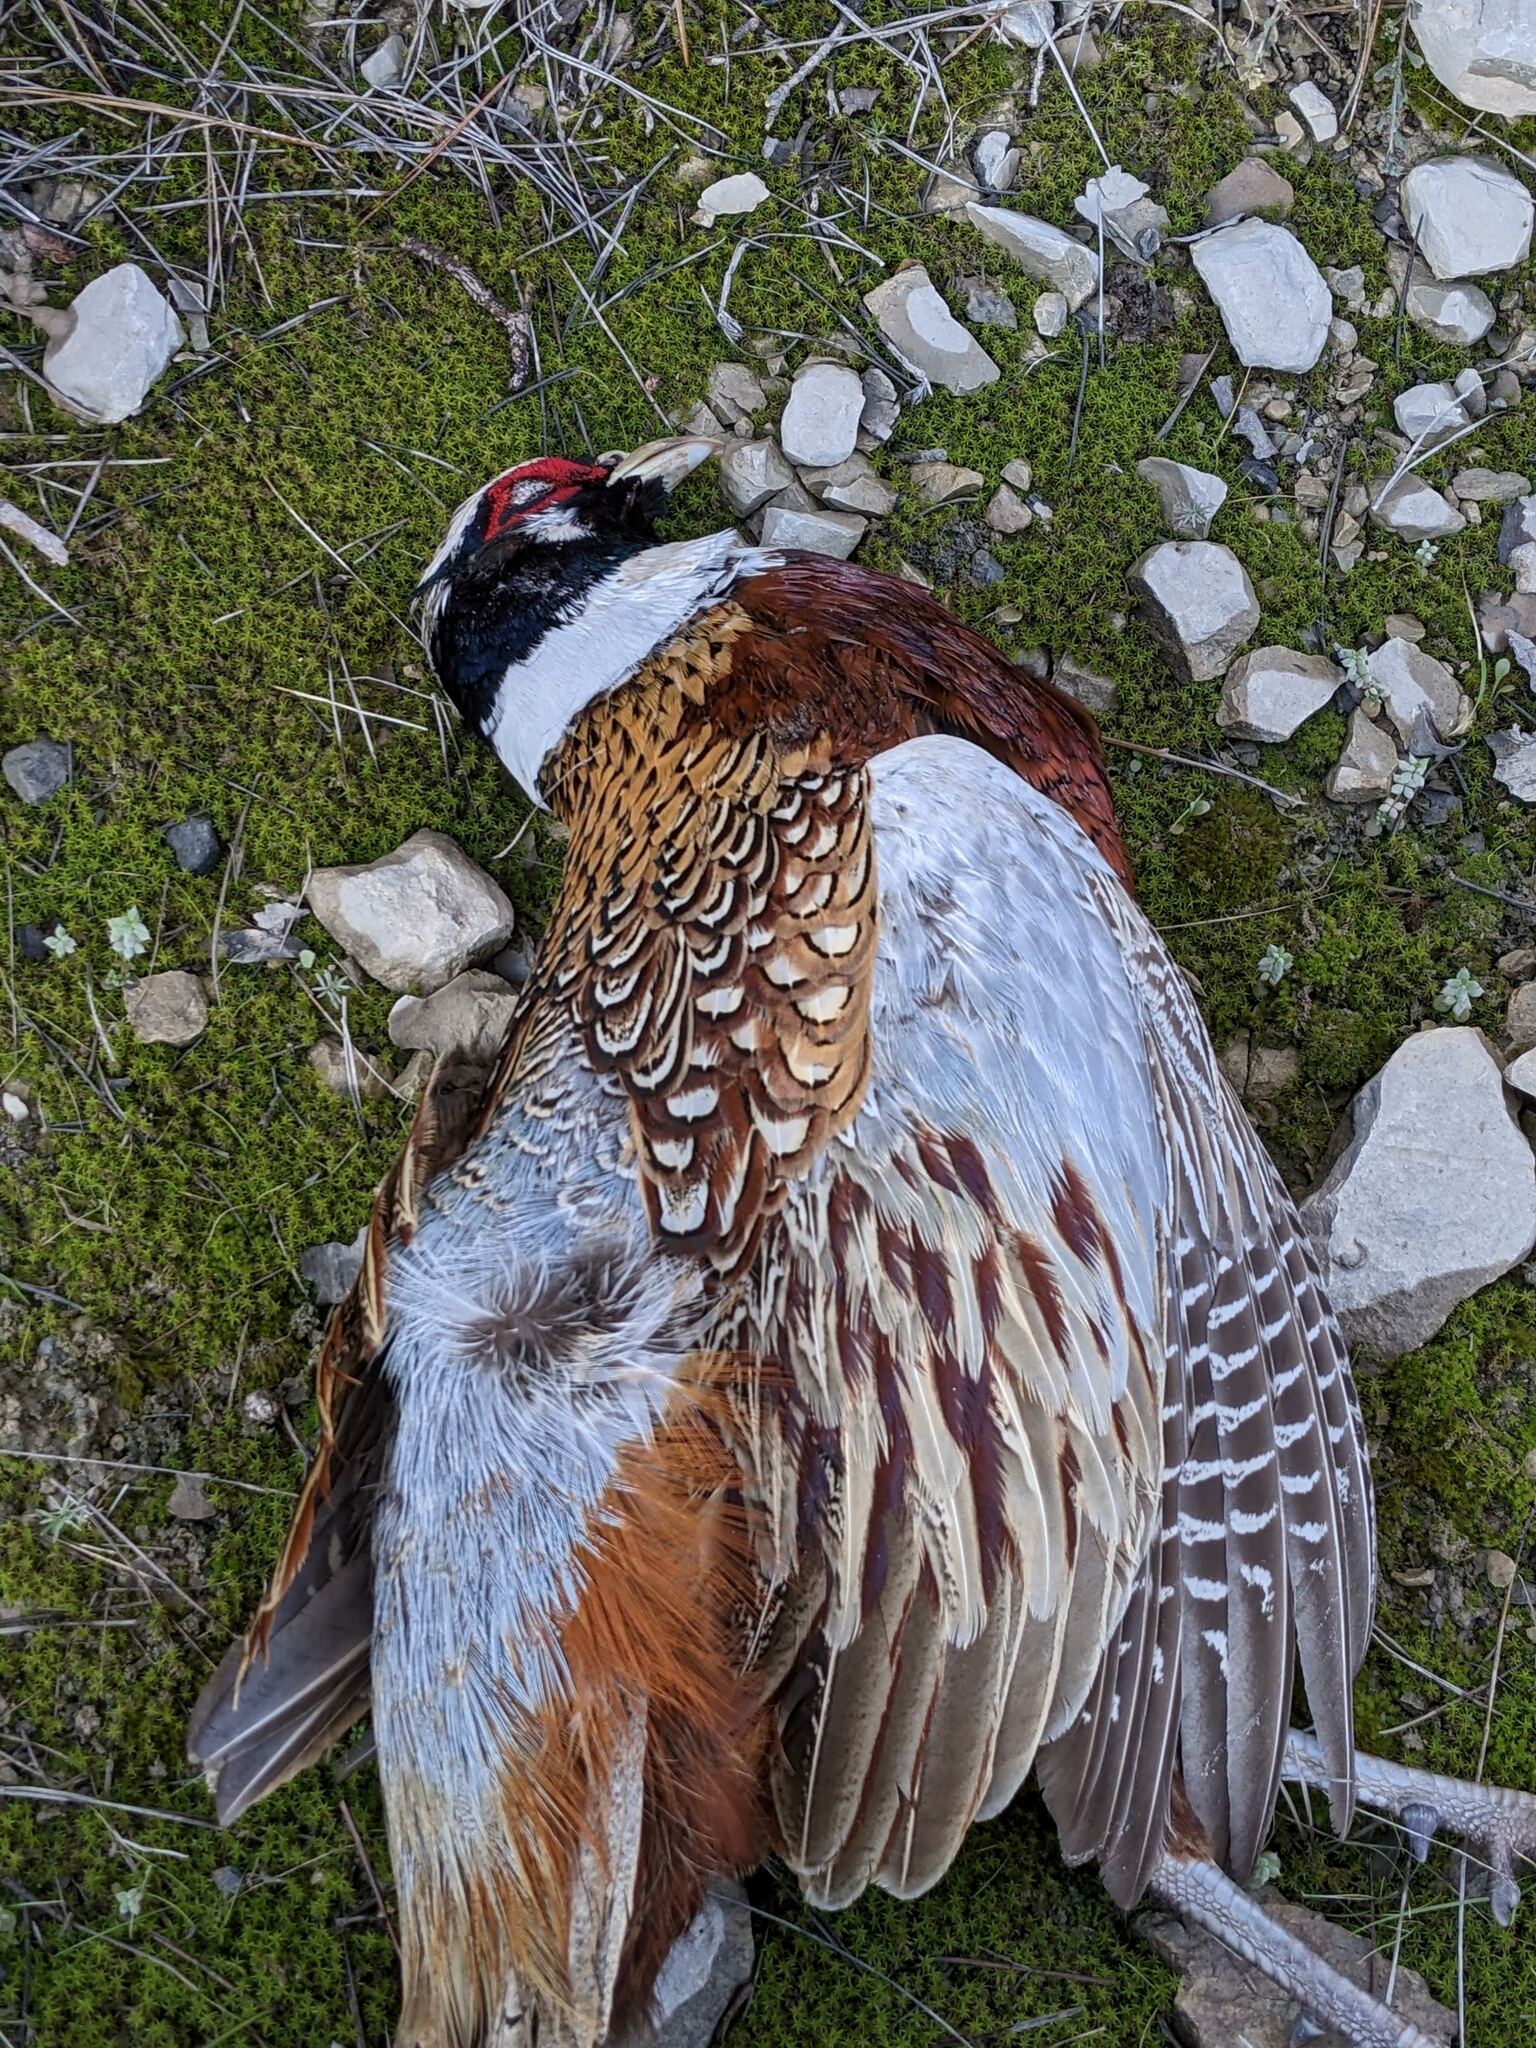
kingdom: Animalia
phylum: Chordata
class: Aves
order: Galliformes
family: Phasianidae
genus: Phasianus
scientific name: Phasianus colchicus
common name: Common pheasant
